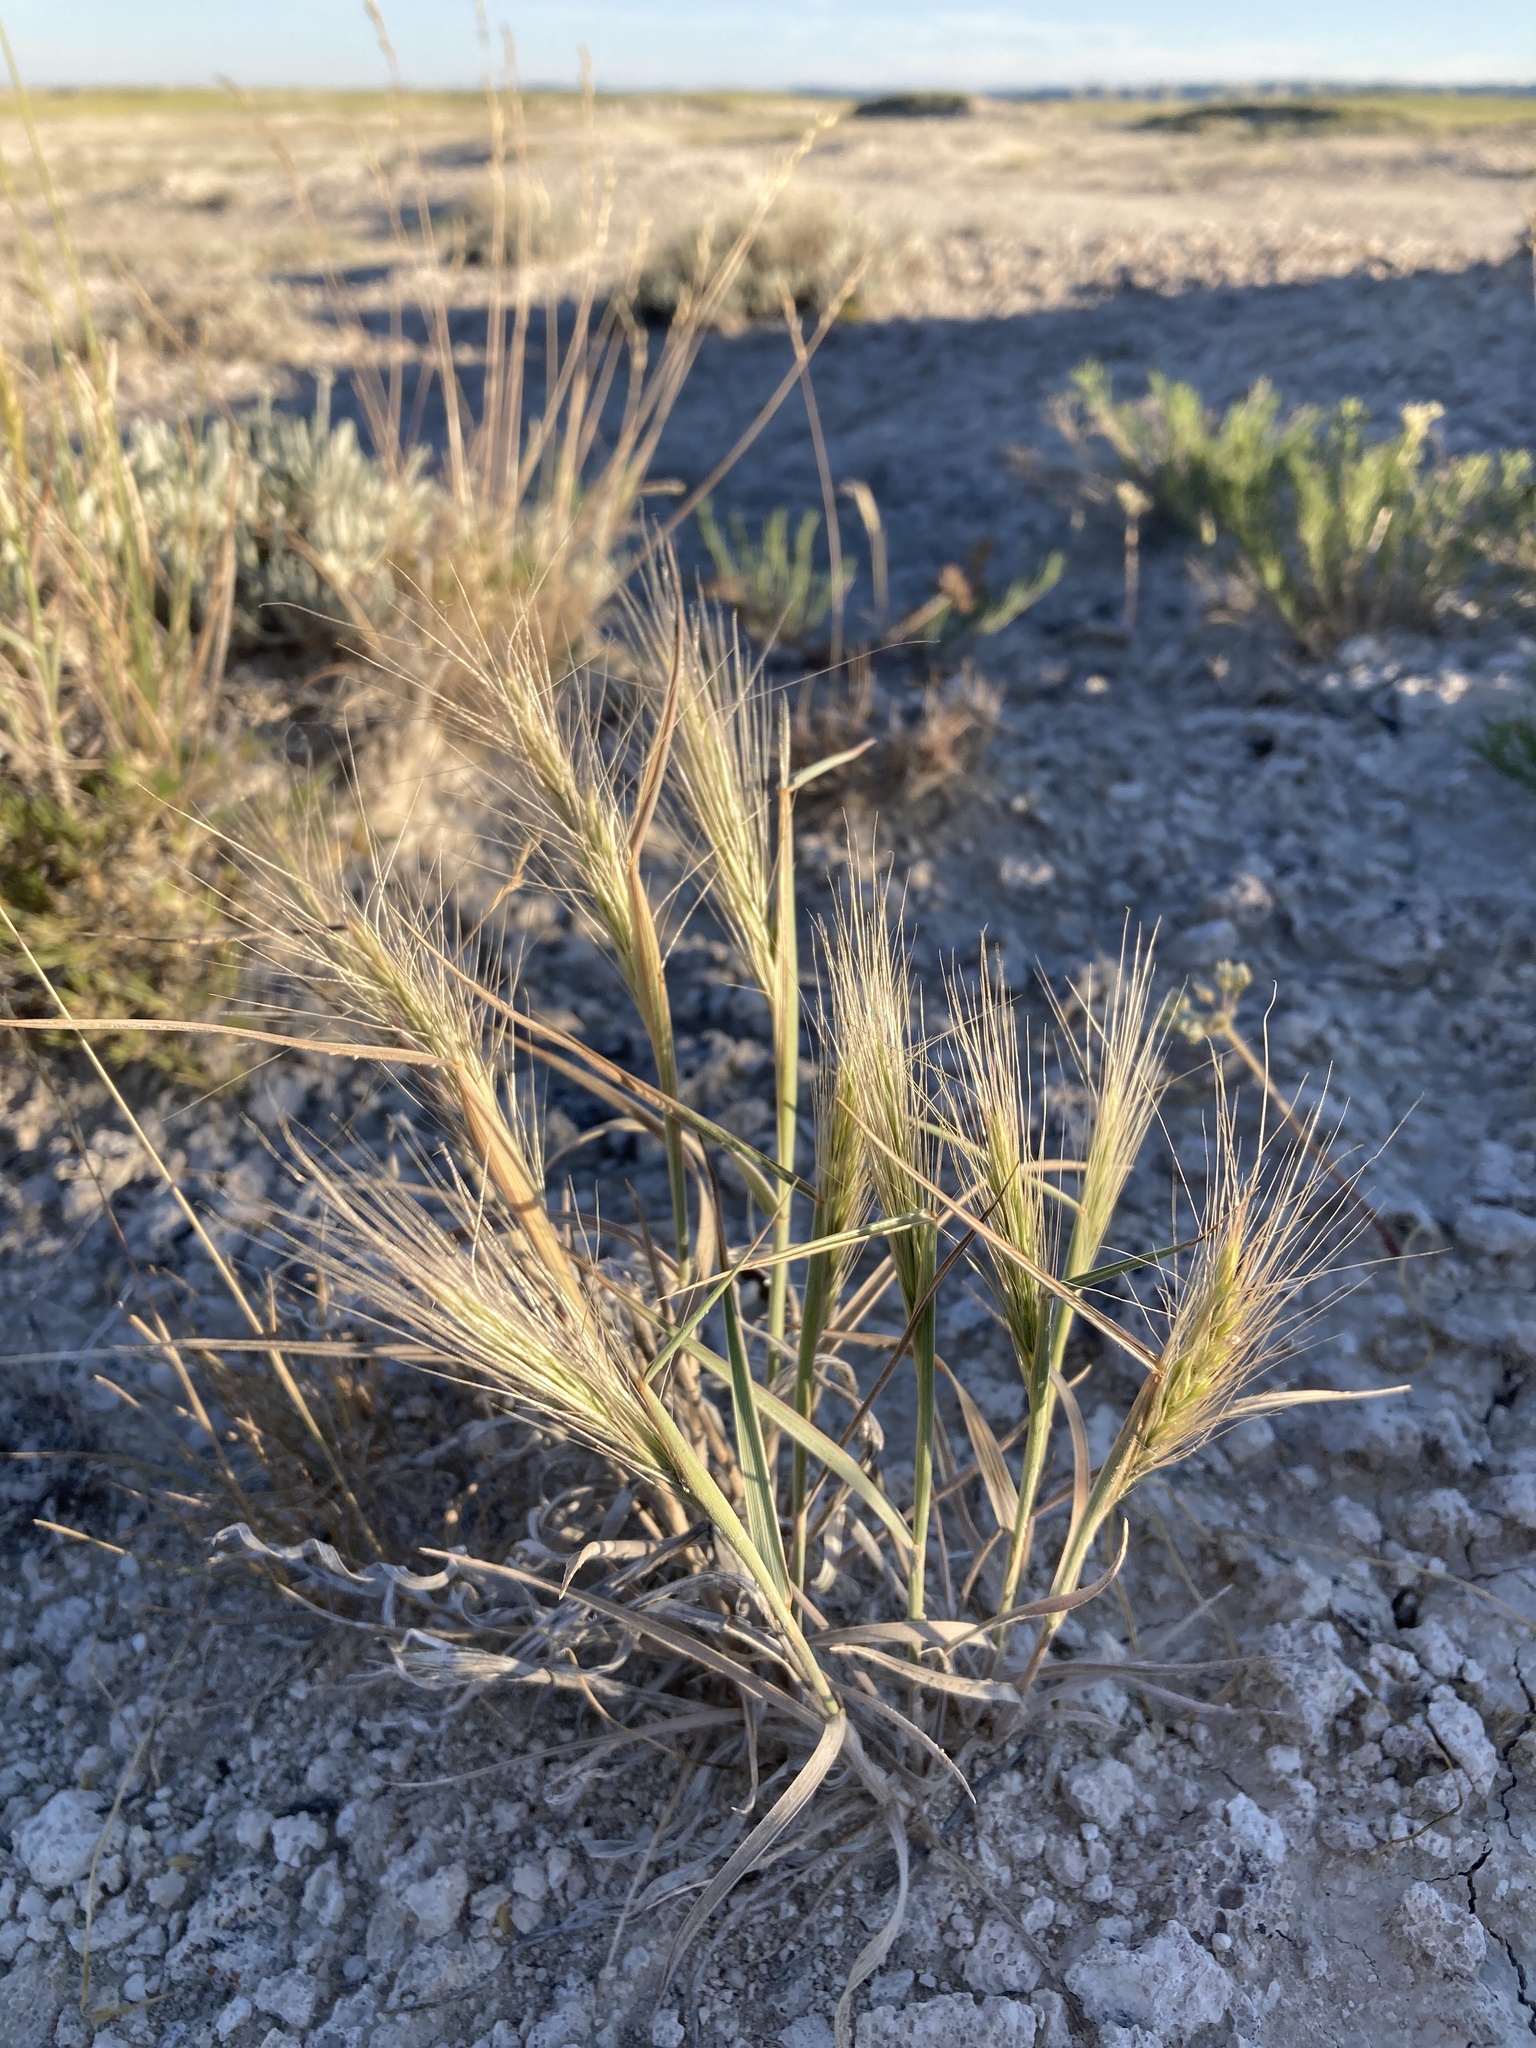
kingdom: Plantae
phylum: Tracheophyta
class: Liliopsida
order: Poales
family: Poaceae
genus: Elymus
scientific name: Elymus elymoides
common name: Bottlebrush squirreltail
